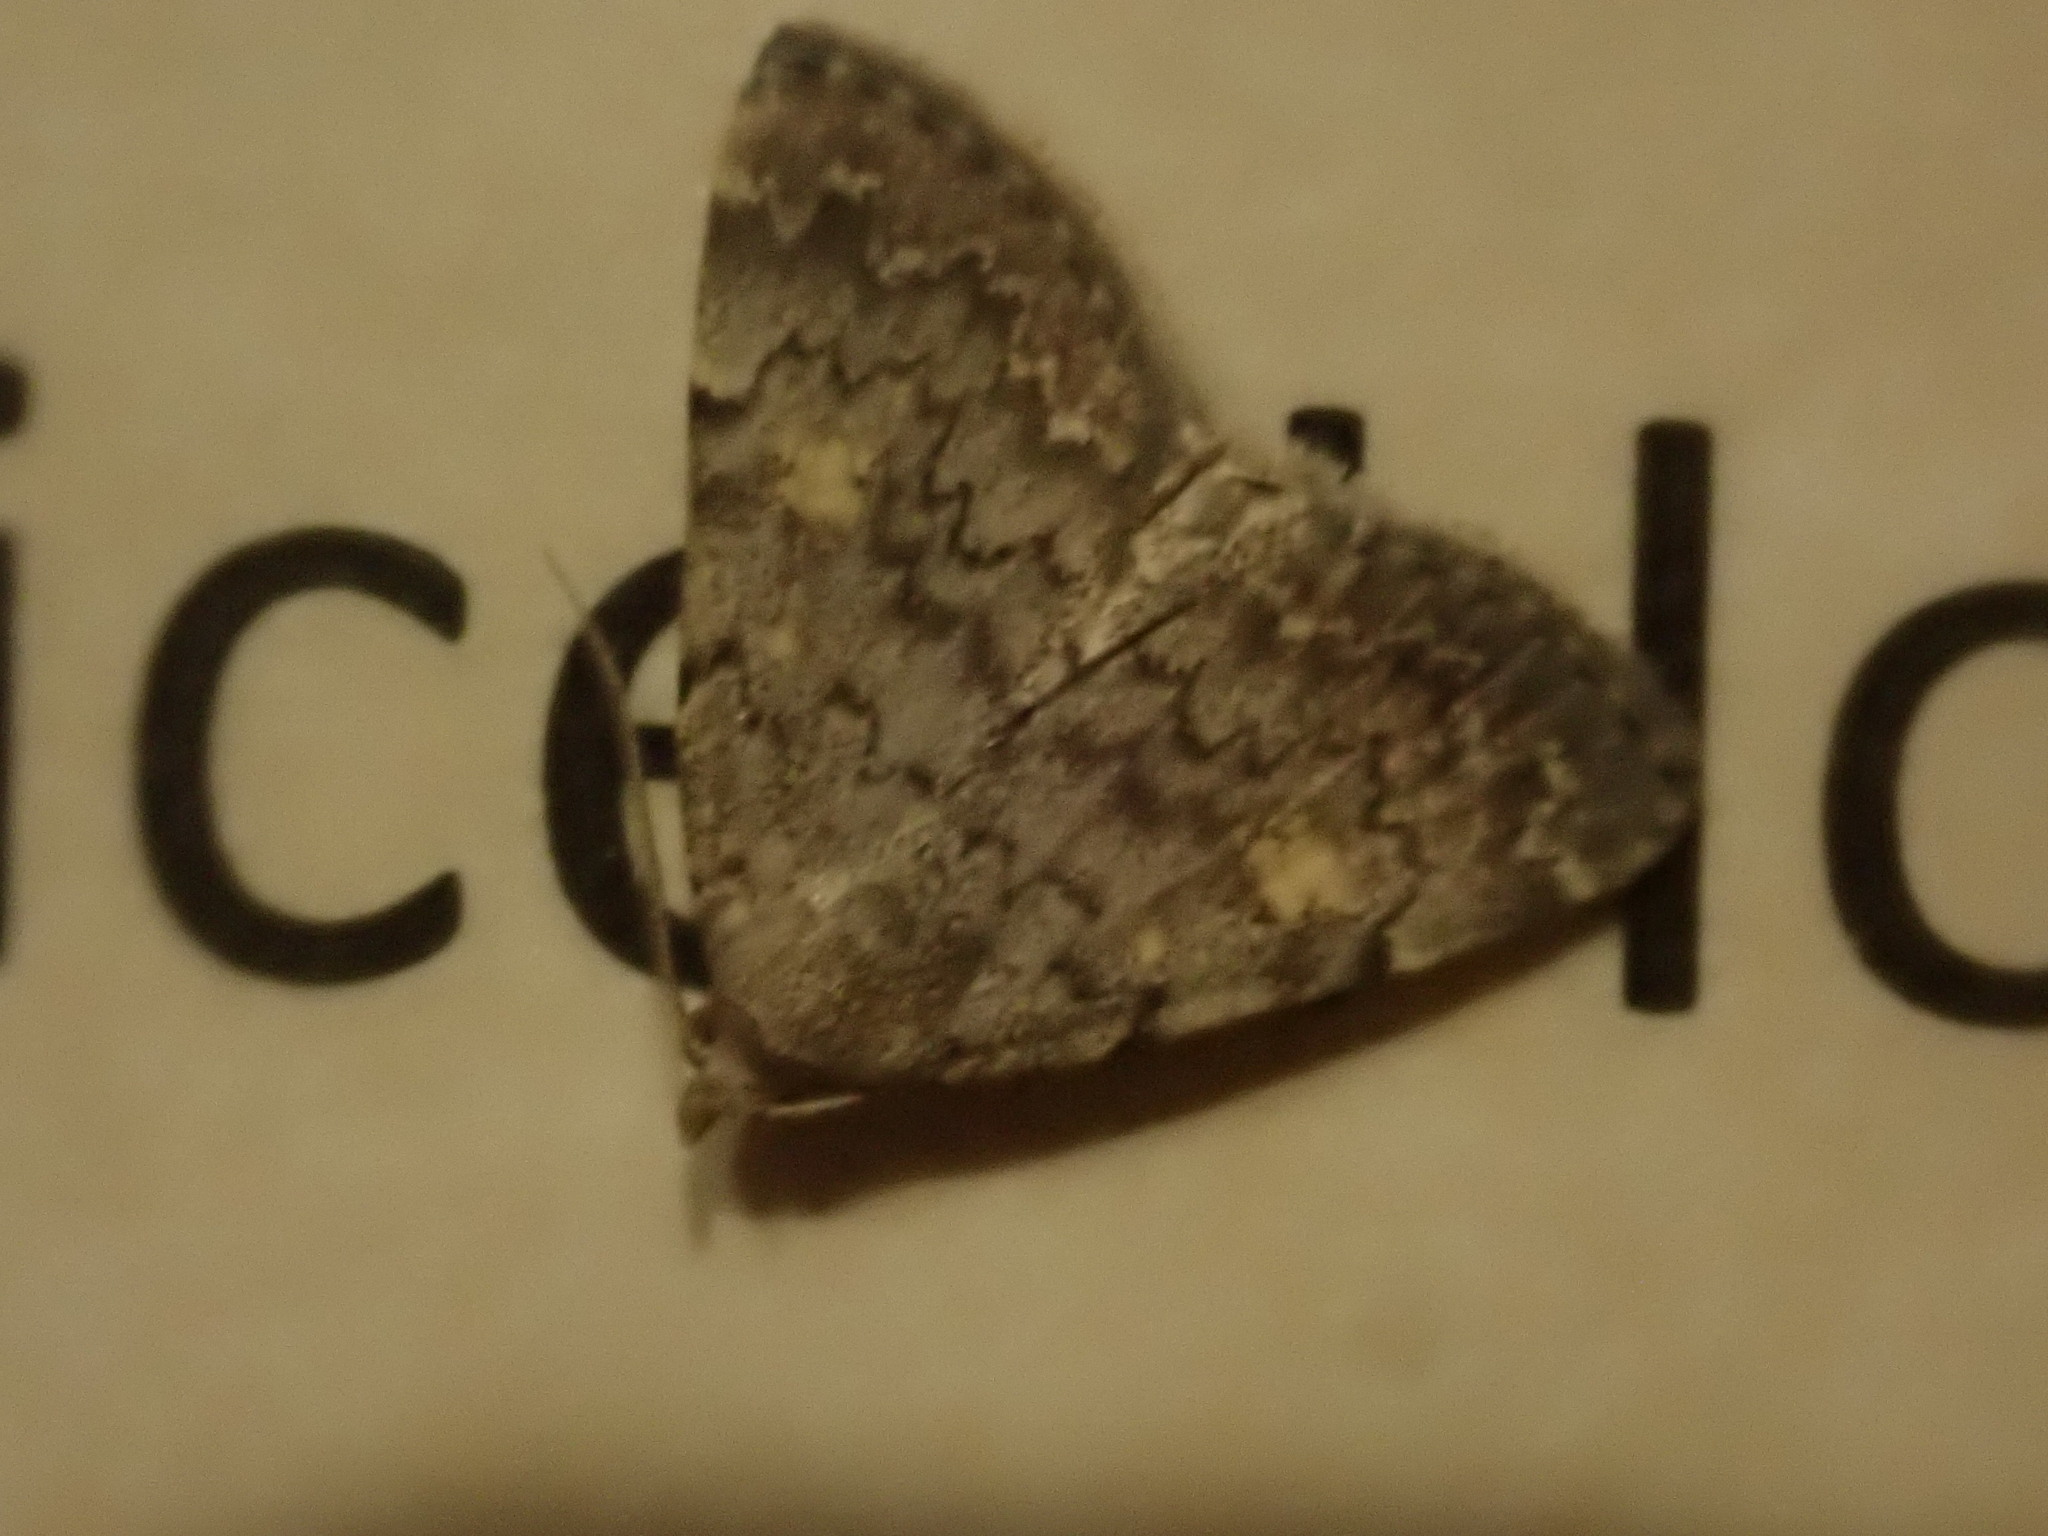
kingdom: Animalia
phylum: Arthropoda
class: Insecta
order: Lepidoptera
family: Erebidae
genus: Idia
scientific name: Idia aemula
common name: Common idia moth
